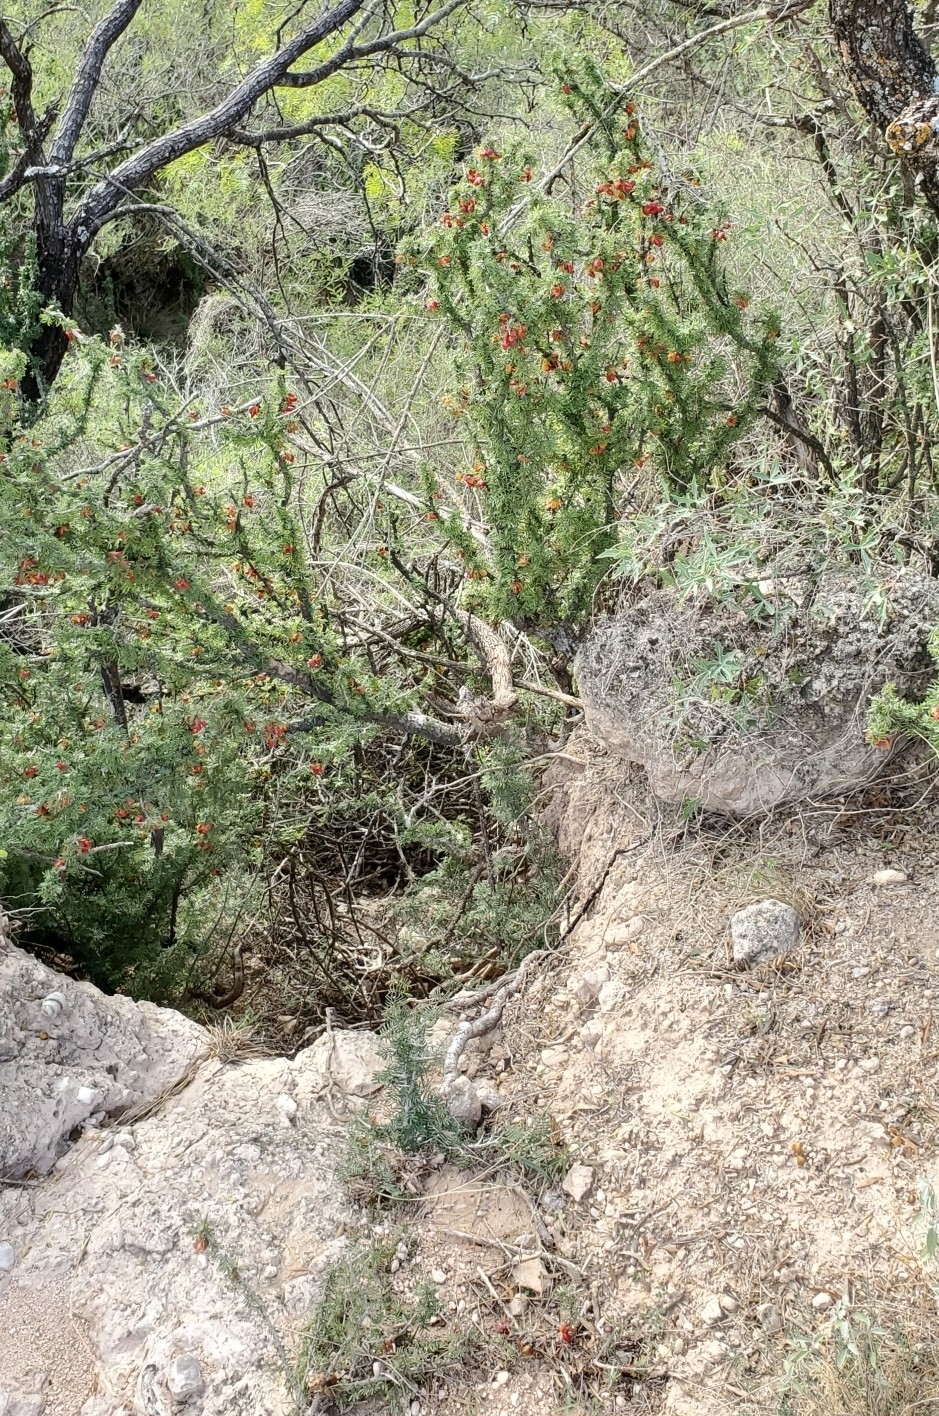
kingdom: Plantae
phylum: Tracheophyta
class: Magnoliopsida
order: Zygophyllales
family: Zygophyllaceae
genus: Porlieria
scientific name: Porlieria angustifolia
